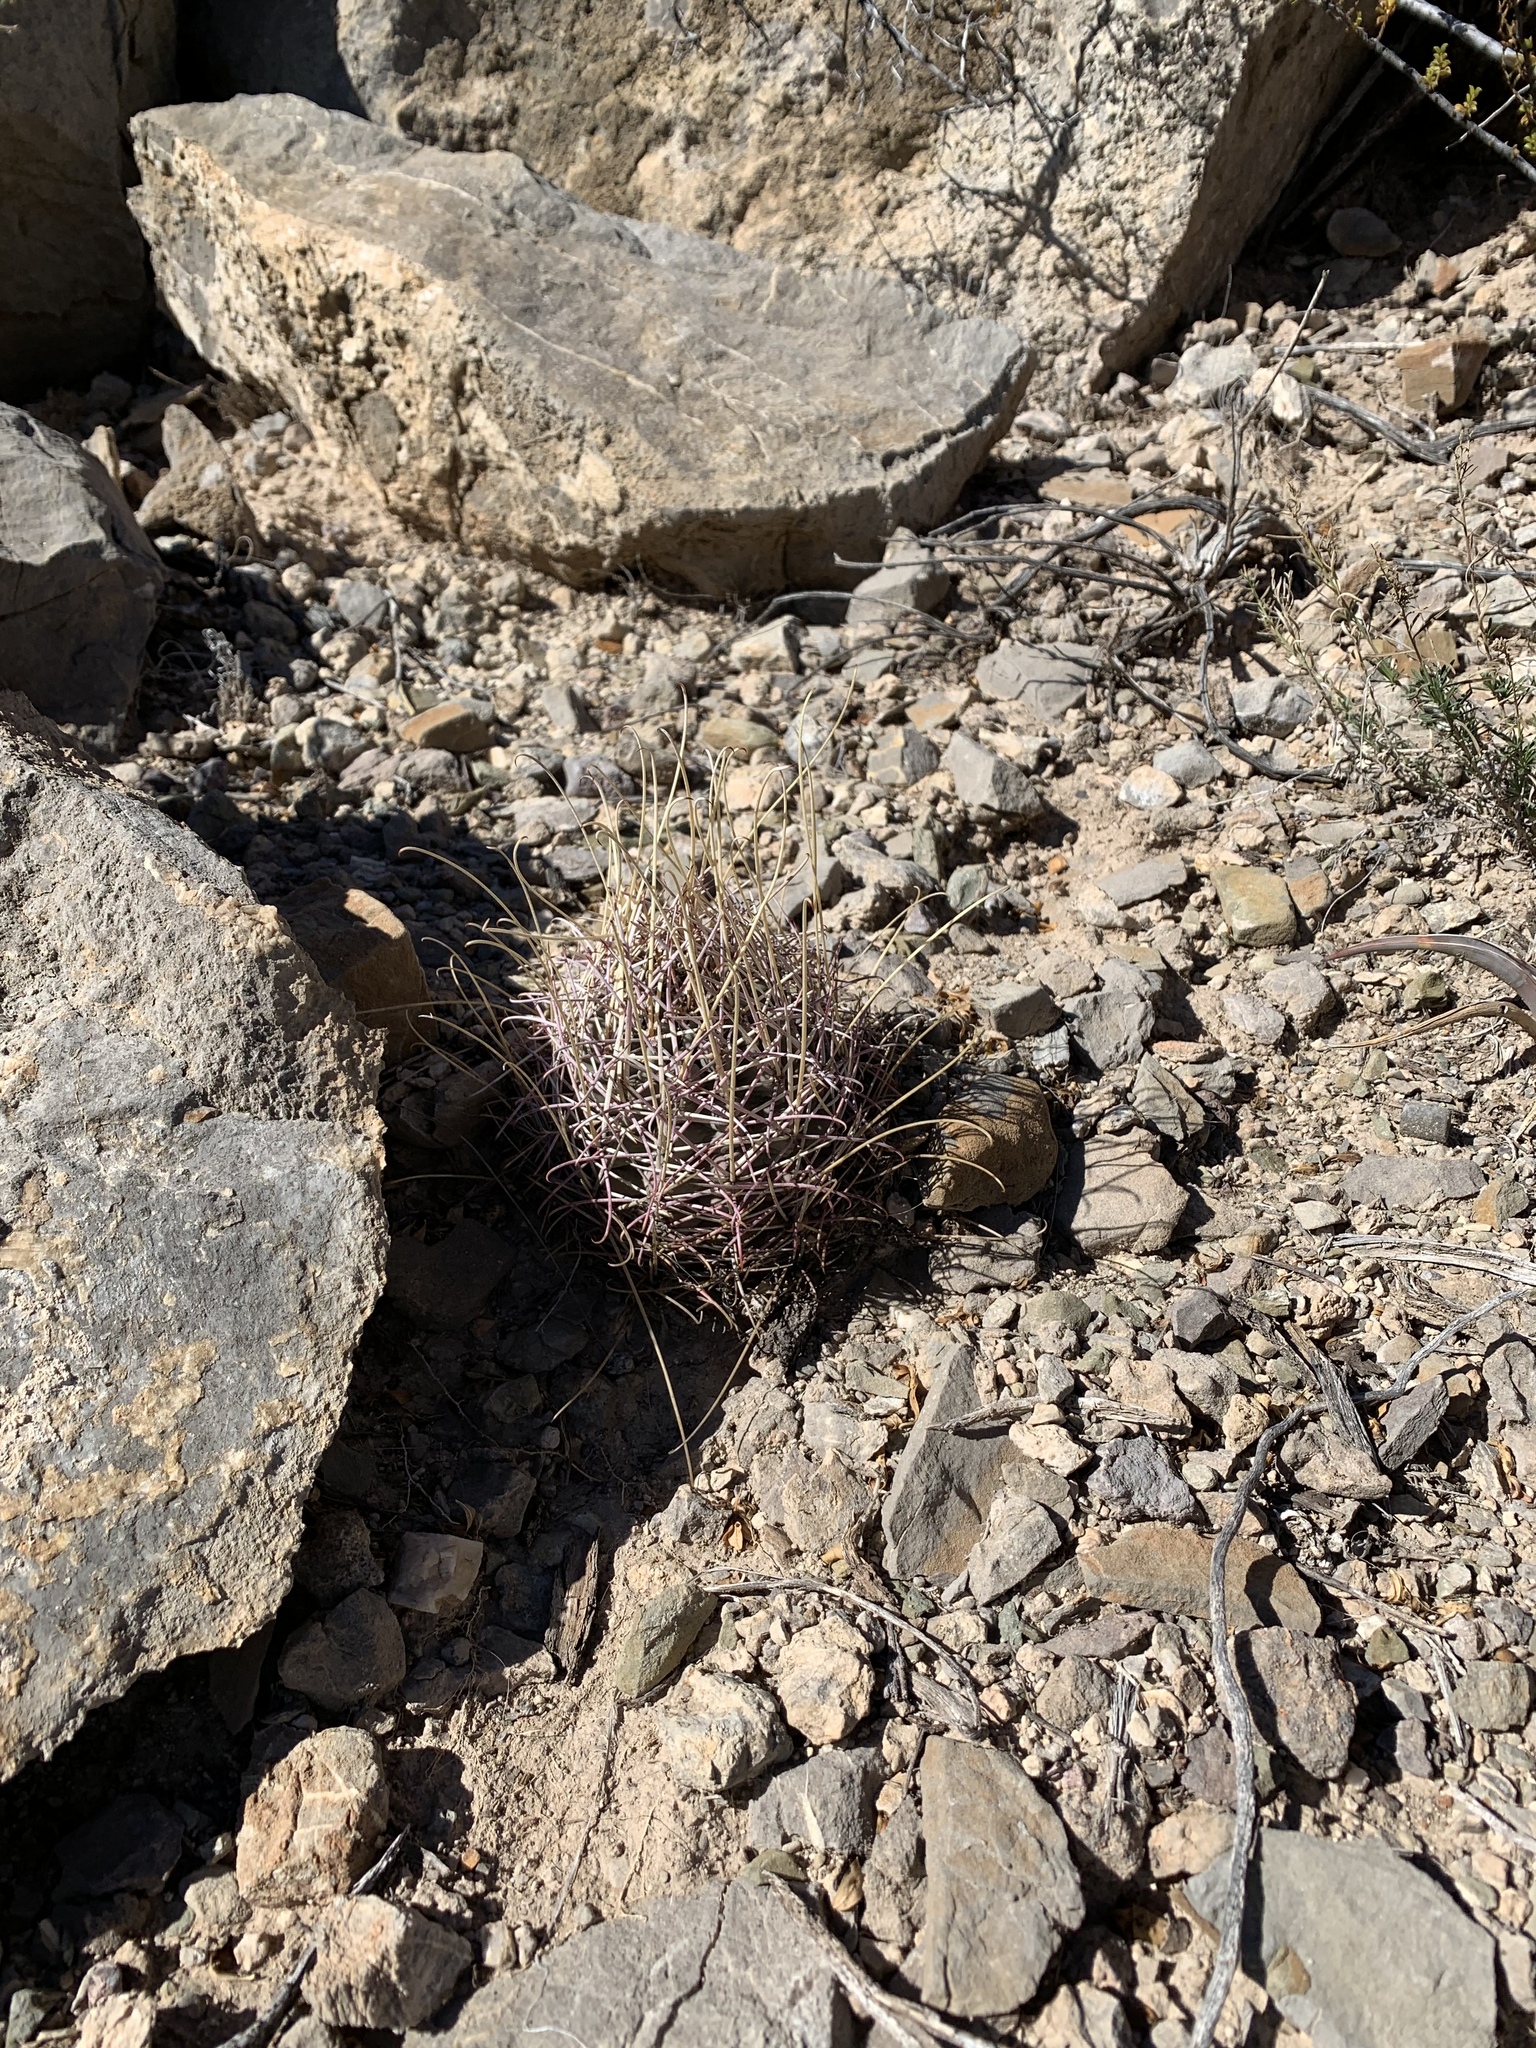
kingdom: Plantae
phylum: Tracheophyta
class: Magnoliopsida
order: Caryophyllales
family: Cactaceae
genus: Ferocactus
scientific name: Ferocactus uncinatus
